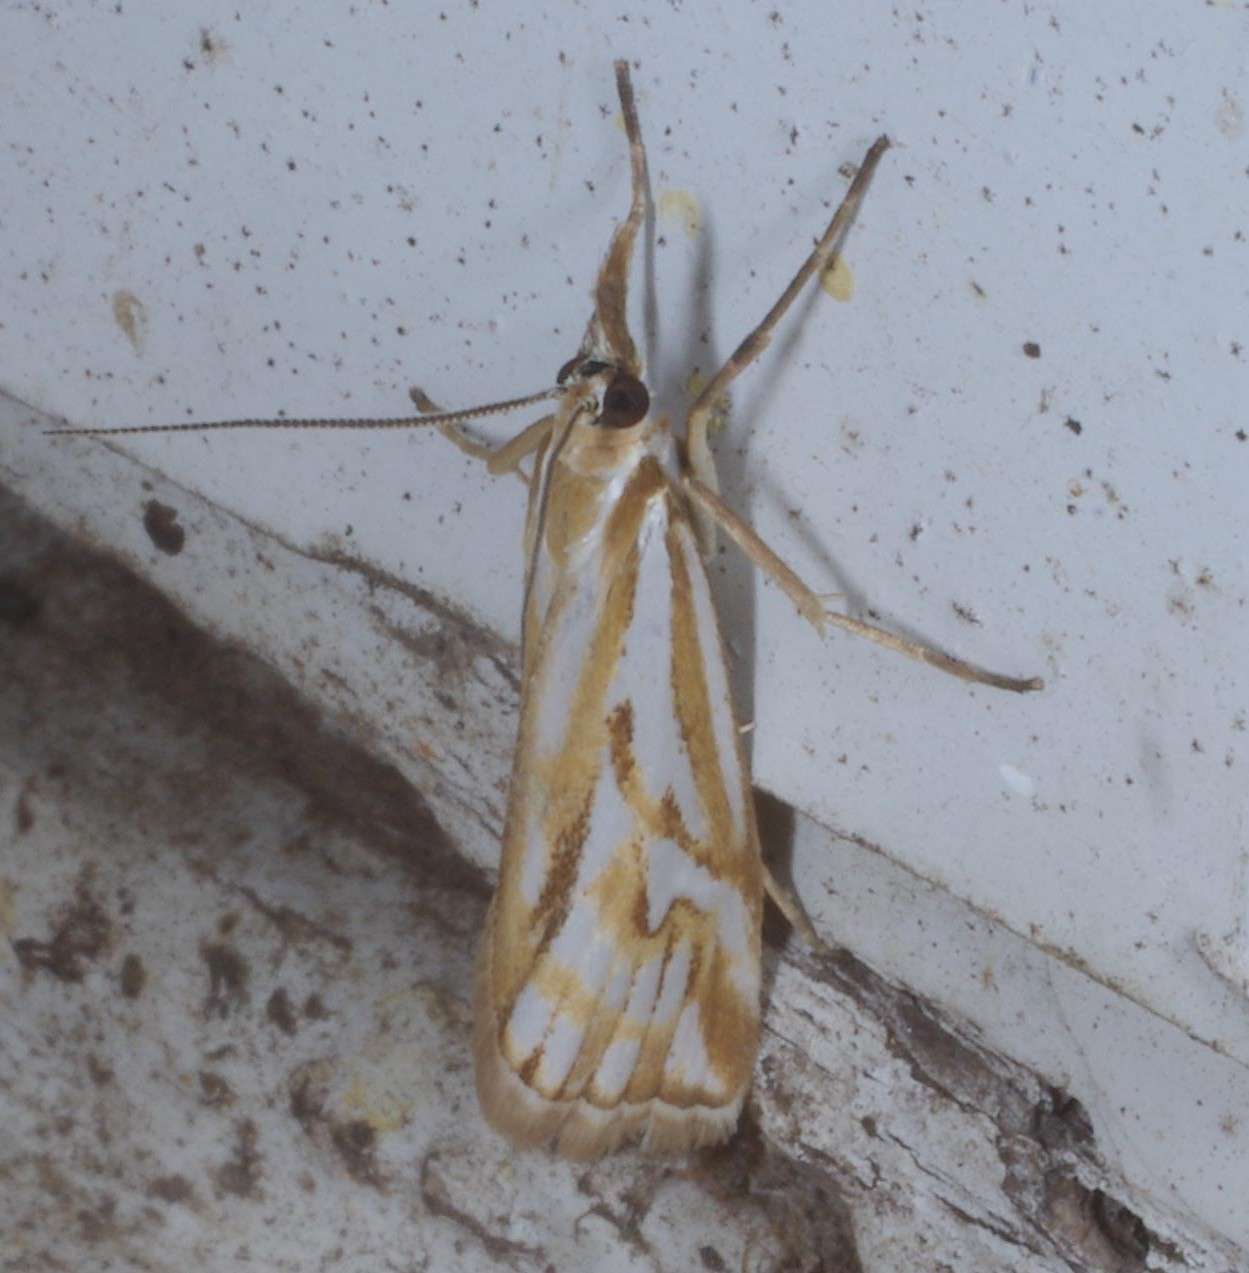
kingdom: Animalia
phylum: Arthropoda
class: Insecta
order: Lepidoptera
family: Crambidae
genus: Hednota
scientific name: Hednota pleniferellus
